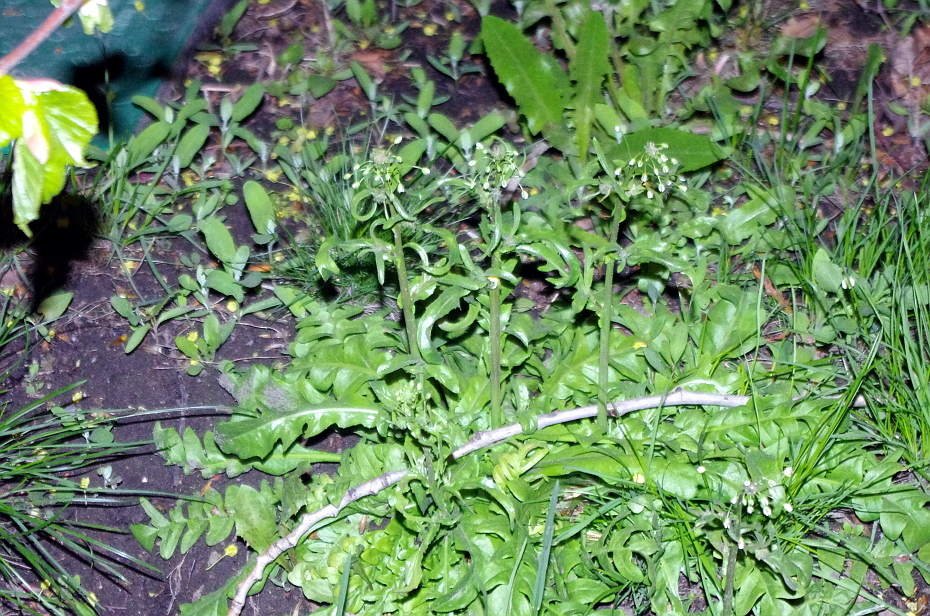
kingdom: Plantae
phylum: Tracheophyta
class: Magnoliopsida
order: Brassicales
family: Brassicaceae
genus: Capsella
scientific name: Capsella bursa-pastoris
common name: Shepherd's purse
